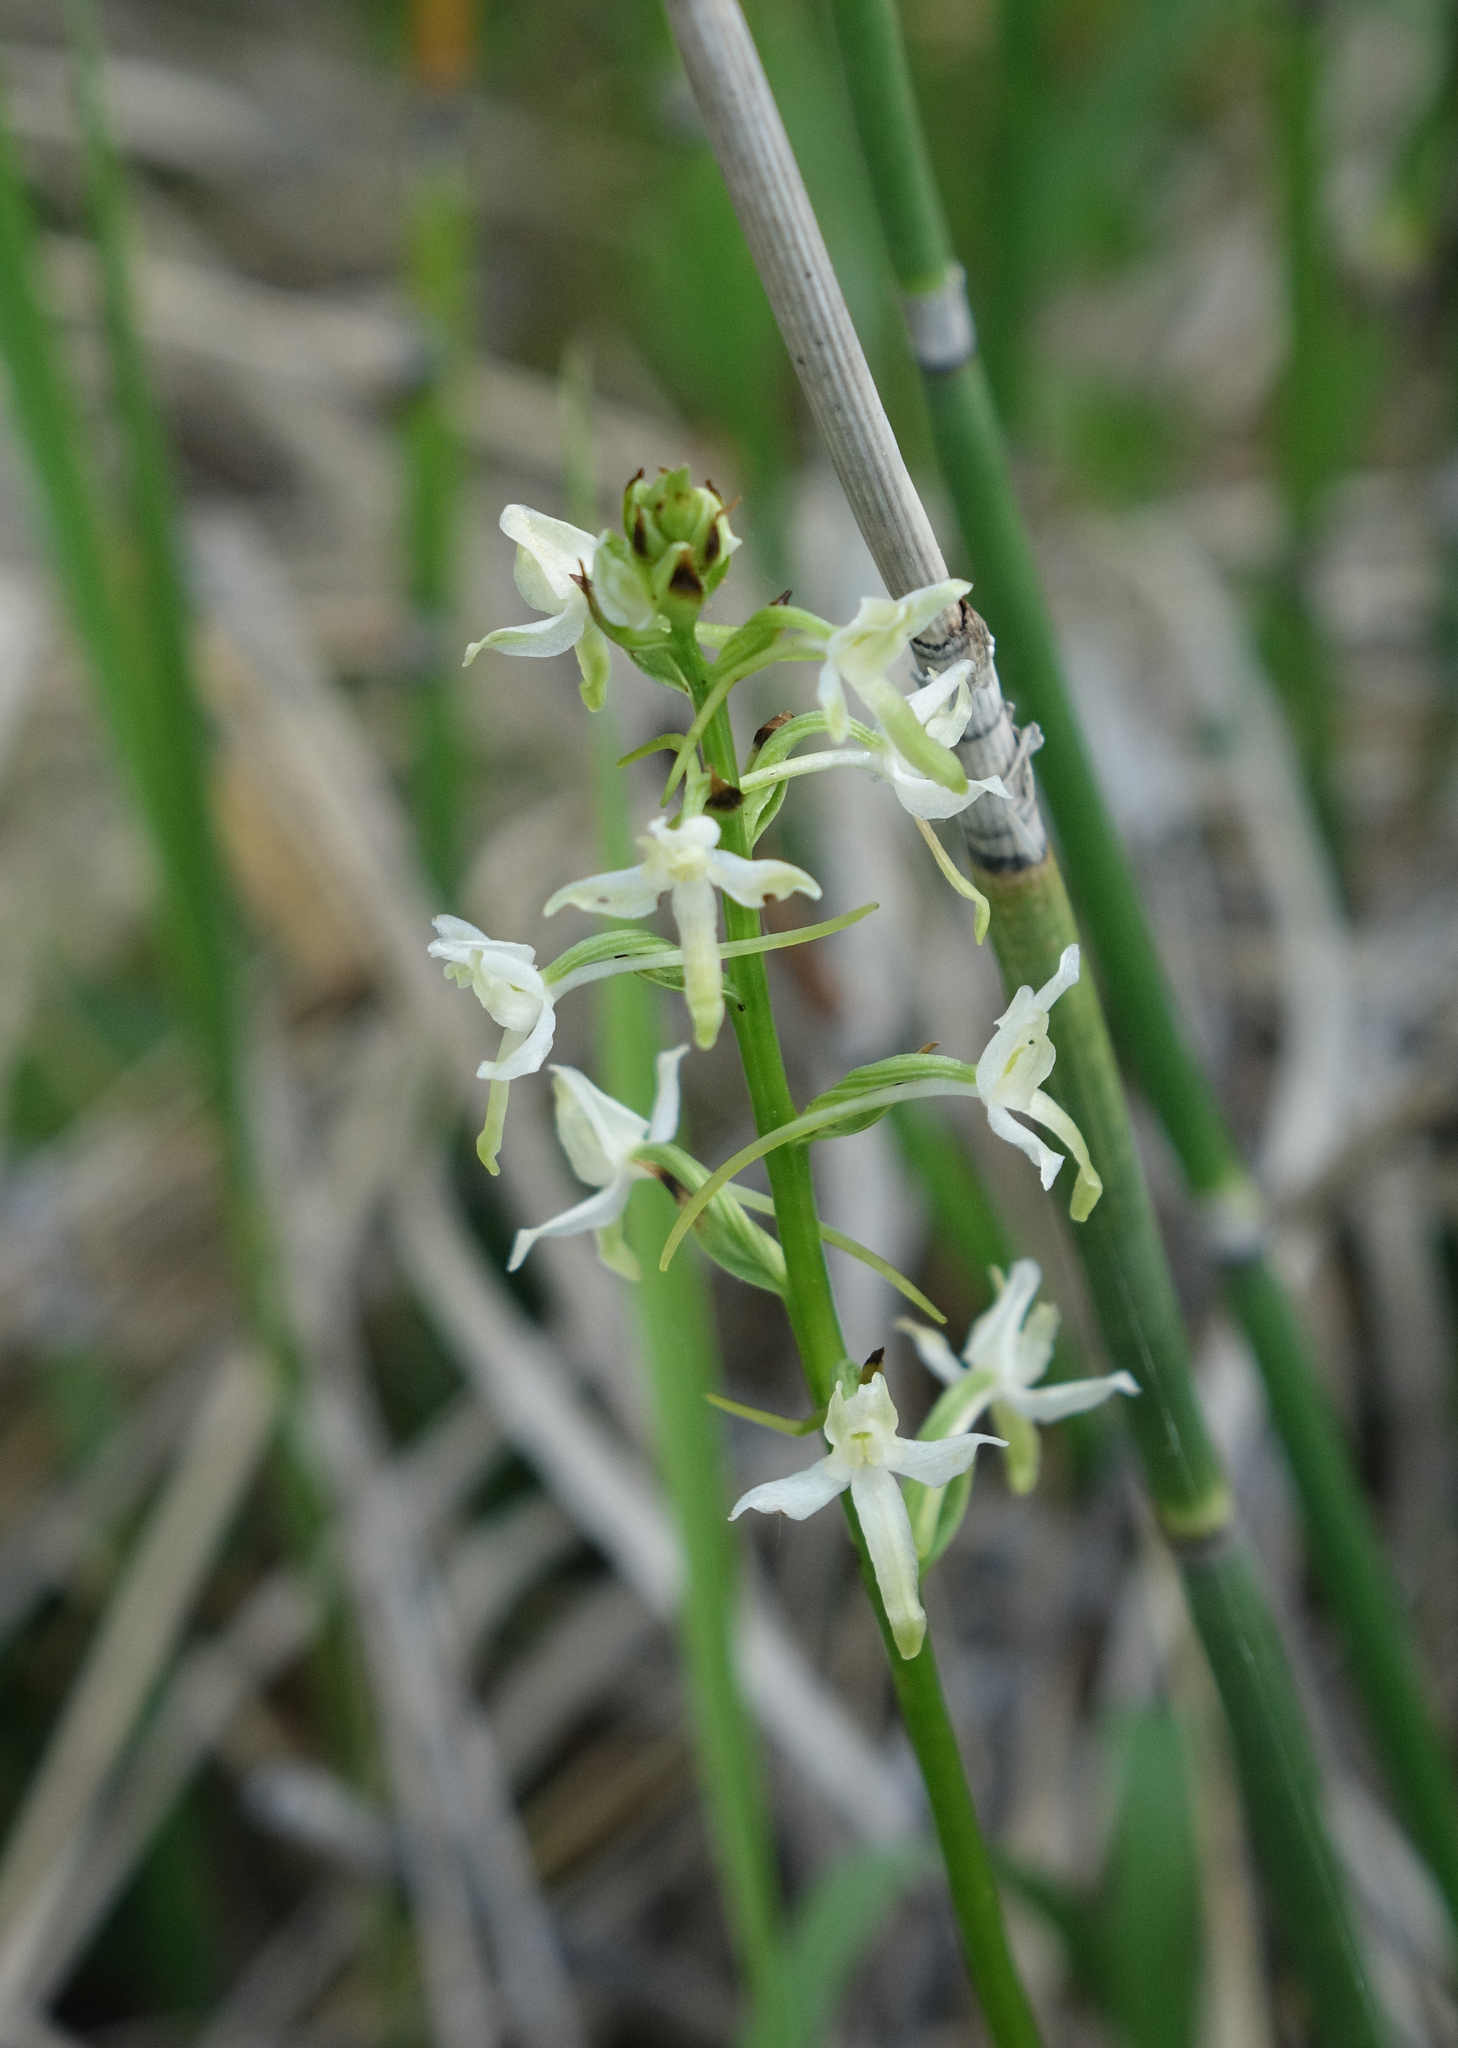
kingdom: Plantae
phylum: Tracheophyta
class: Liliopsida
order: Asparagales
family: Orchidaceae
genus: Platanthera
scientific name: Platanthera bifolia
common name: Lesser butterfly-orchid
